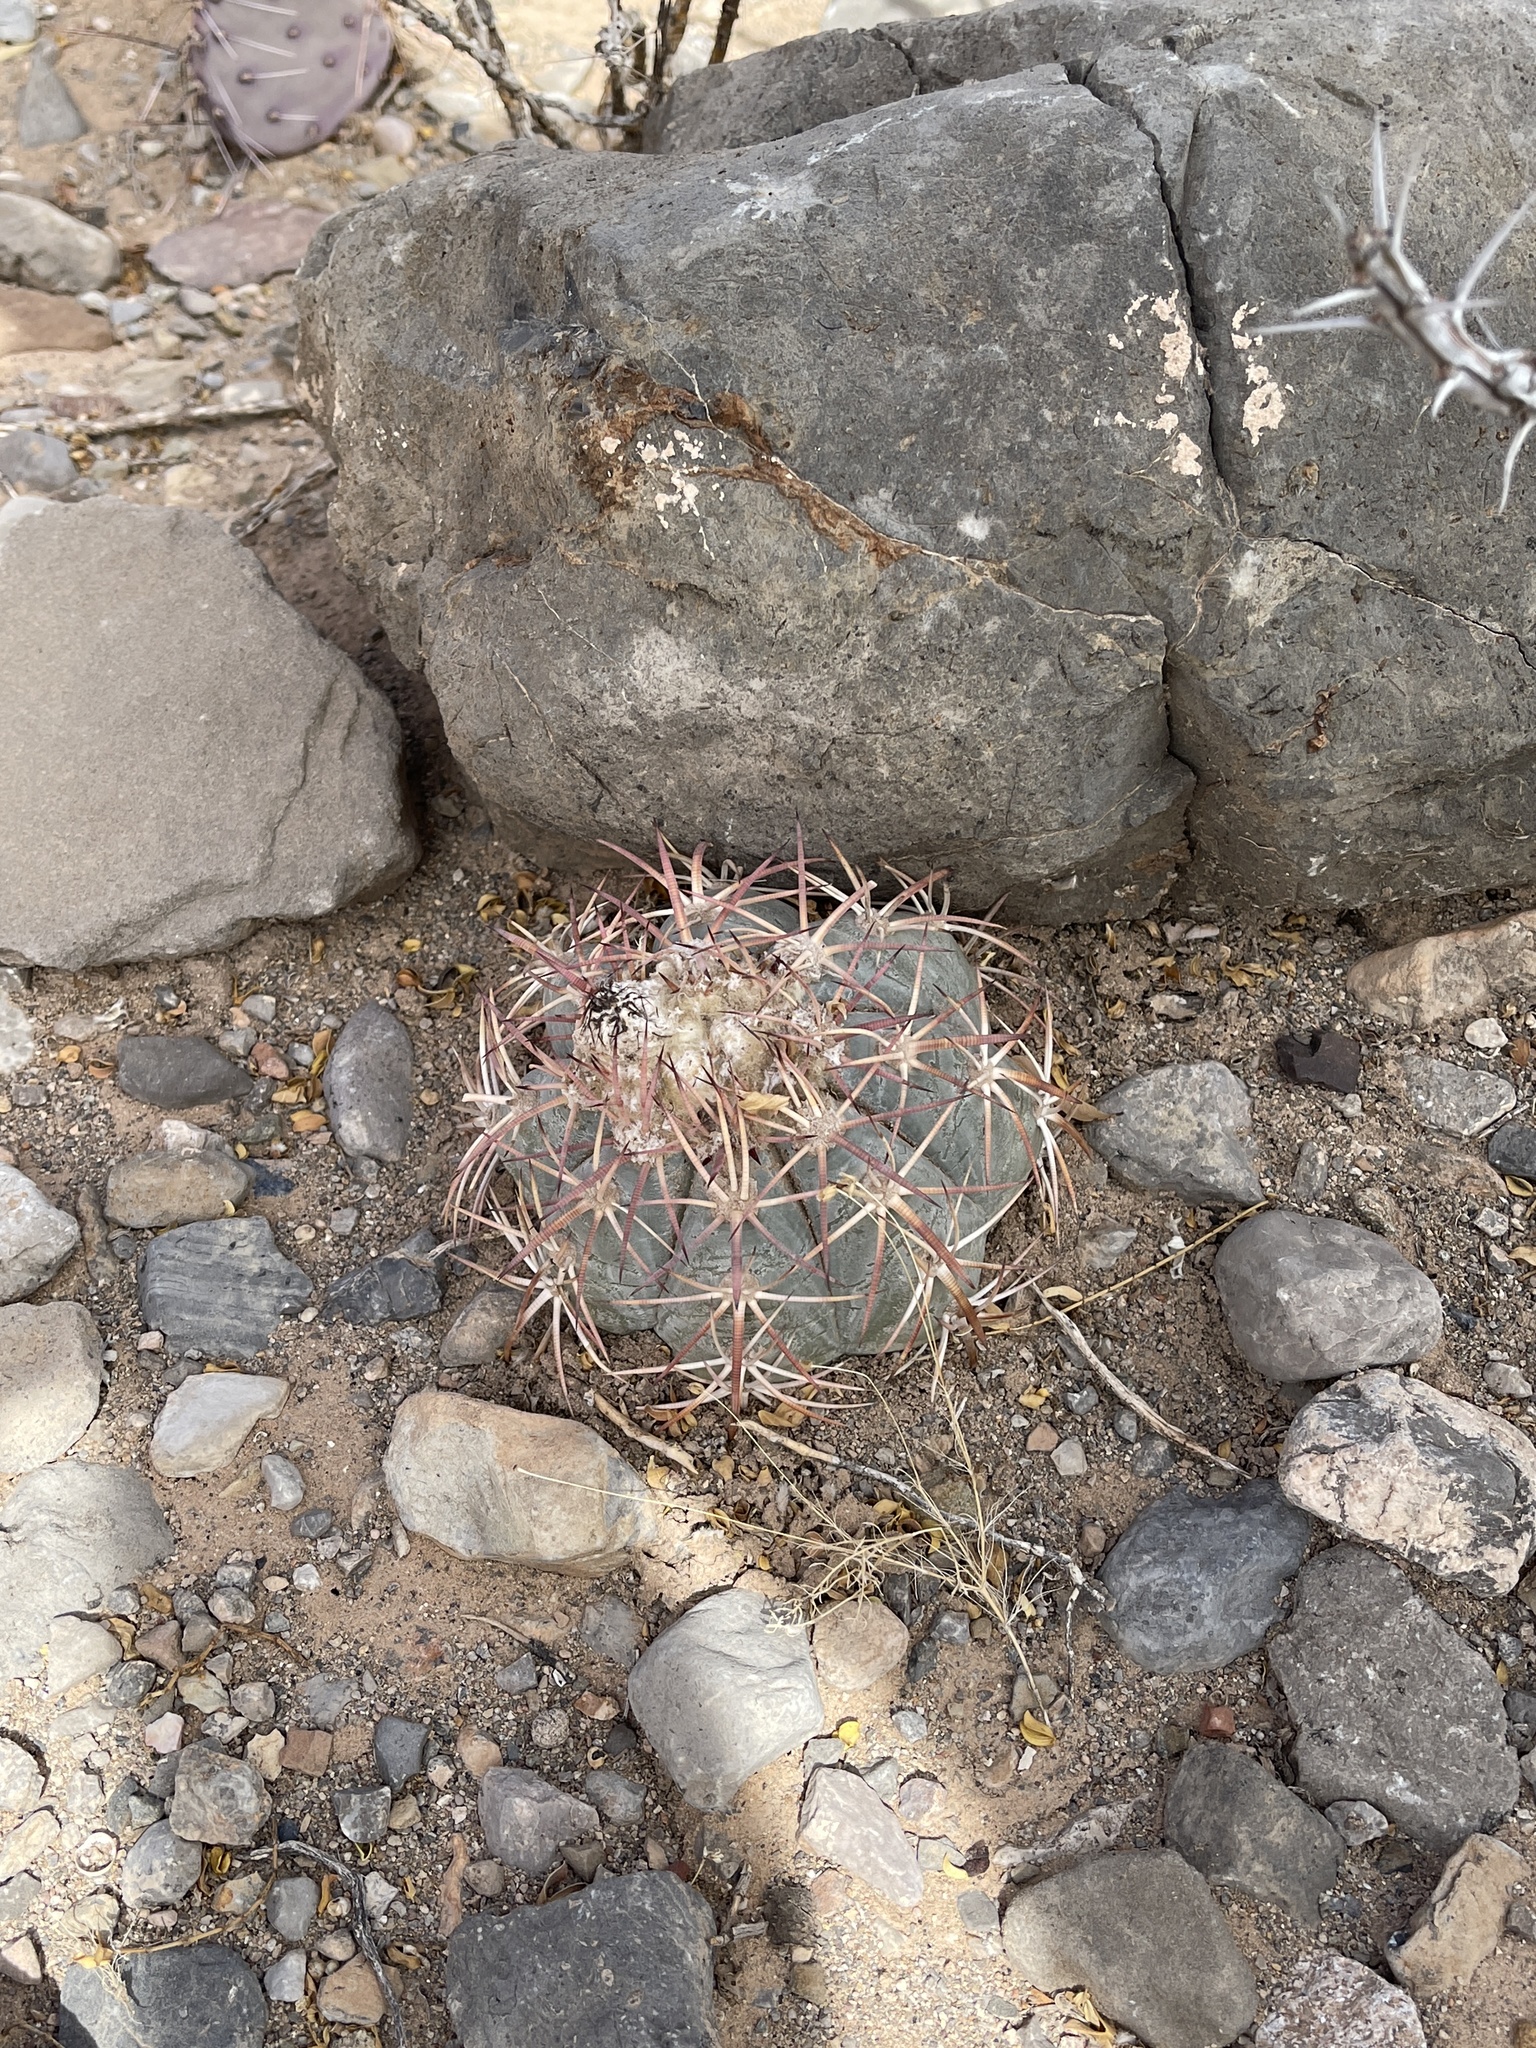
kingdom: Plantae
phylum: Tracheophyta
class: Magnoliopsida
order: Caryophyllales
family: Cactaceae
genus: Echinocactus
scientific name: Echinocactus horizonthalonius
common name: Devilshead
